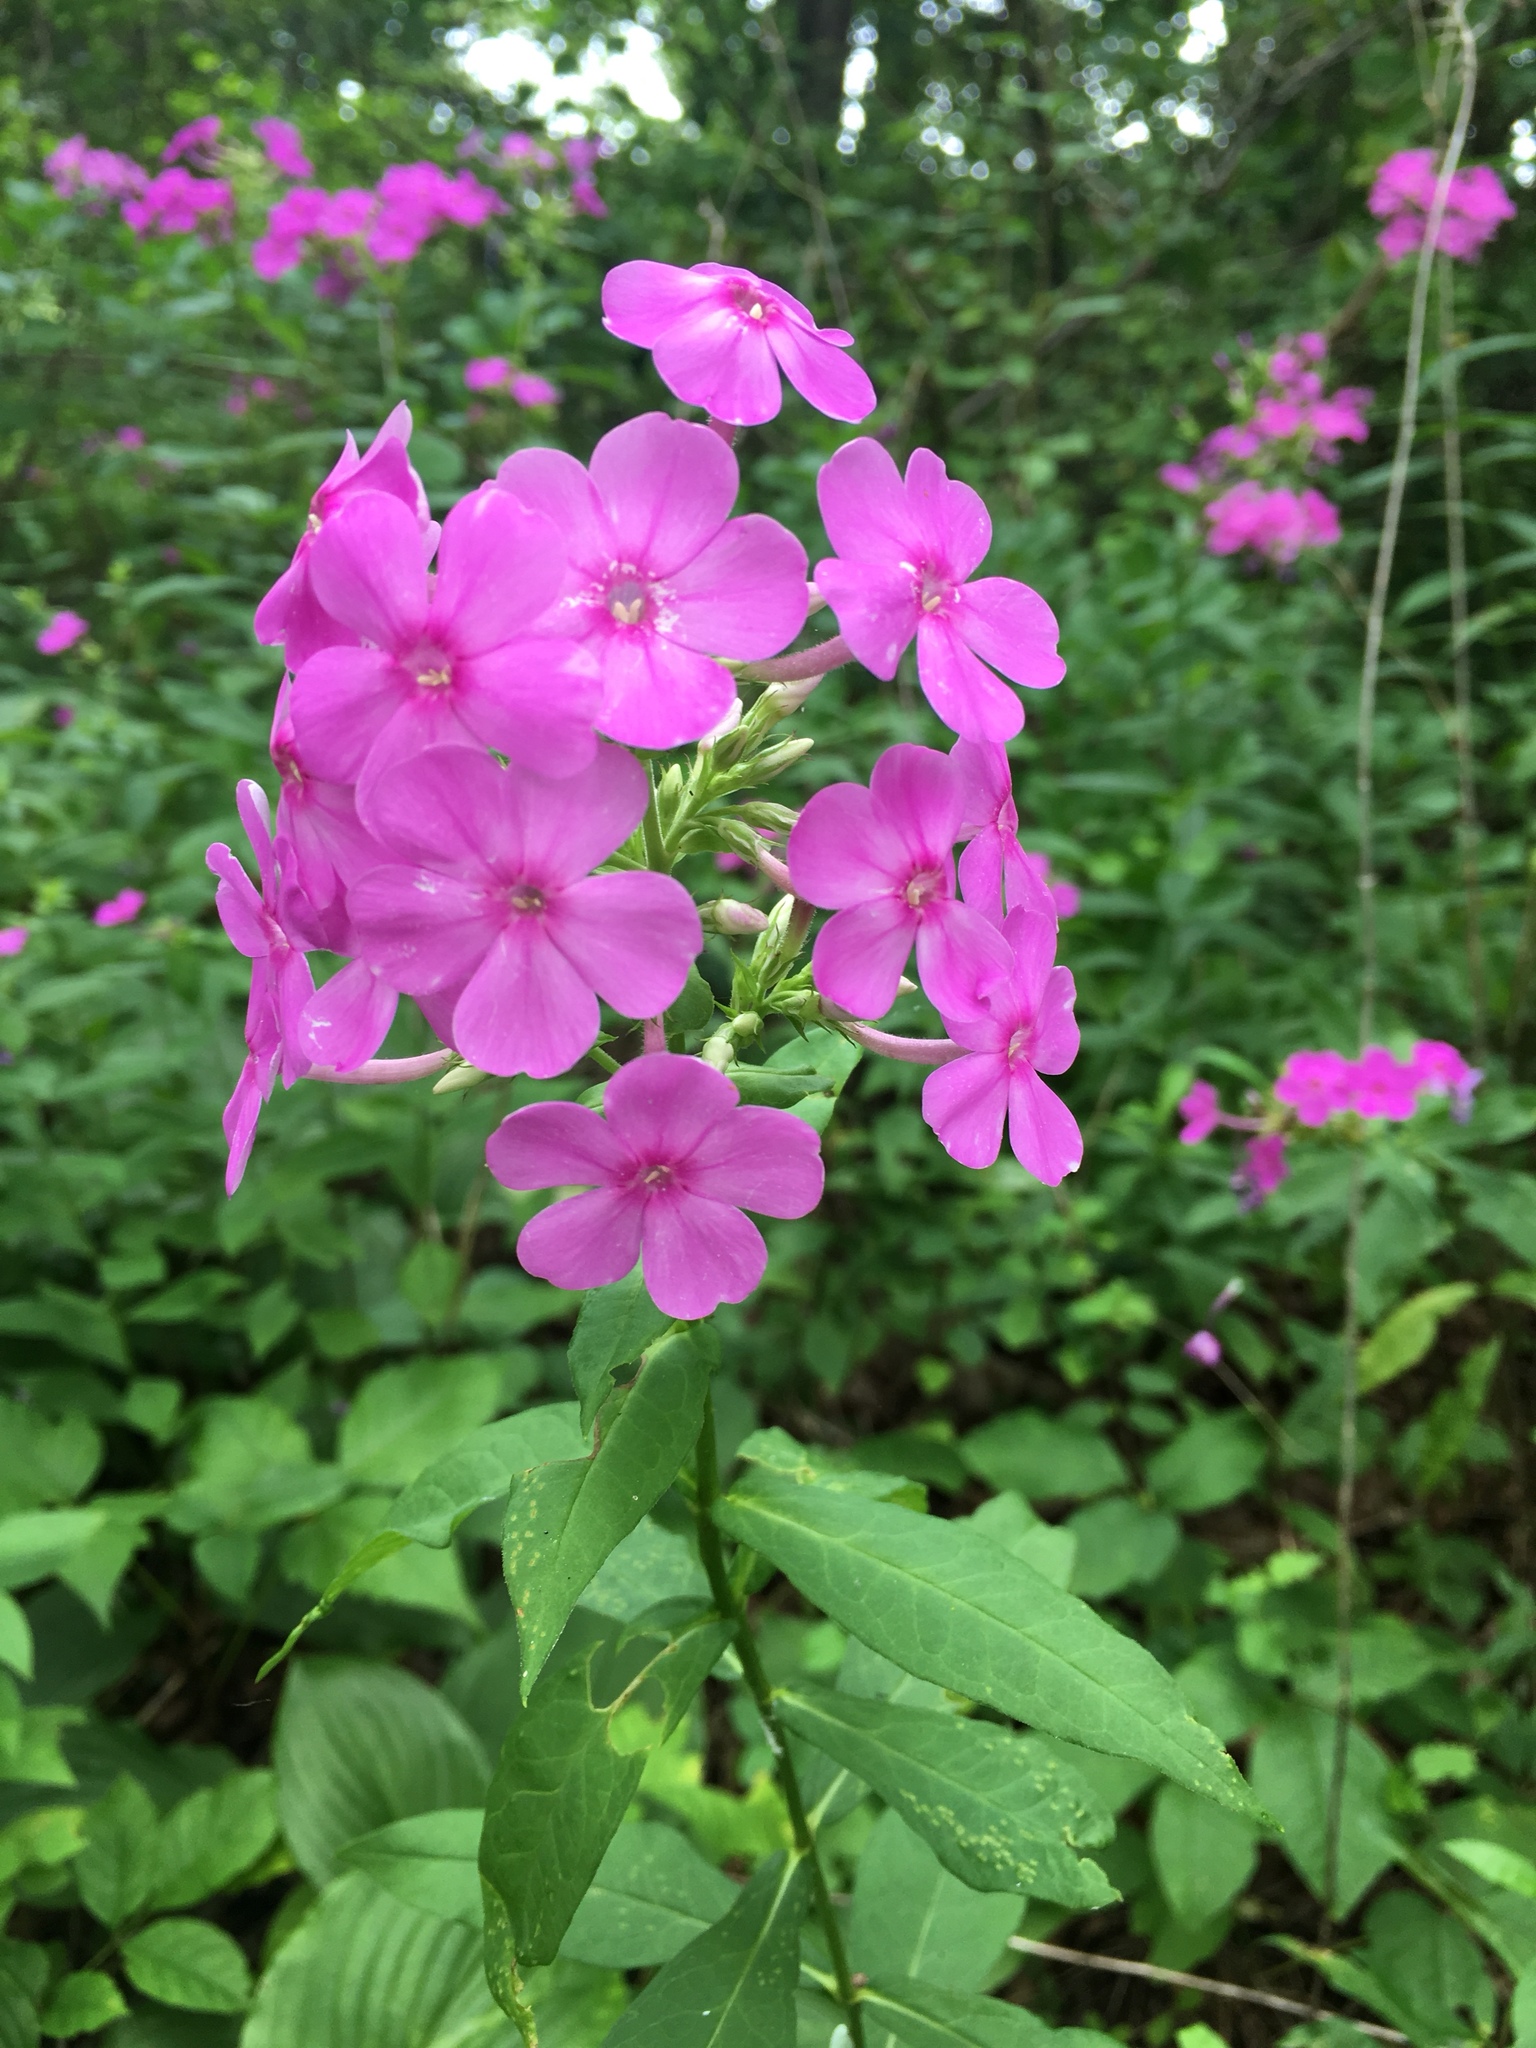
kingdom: Plantae
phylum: Tracheophyta
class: Magnoliopsida
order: Ericales
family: Polemoniaceae
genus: Phlox
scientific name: Phlox paniculata
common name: Fall phlox
